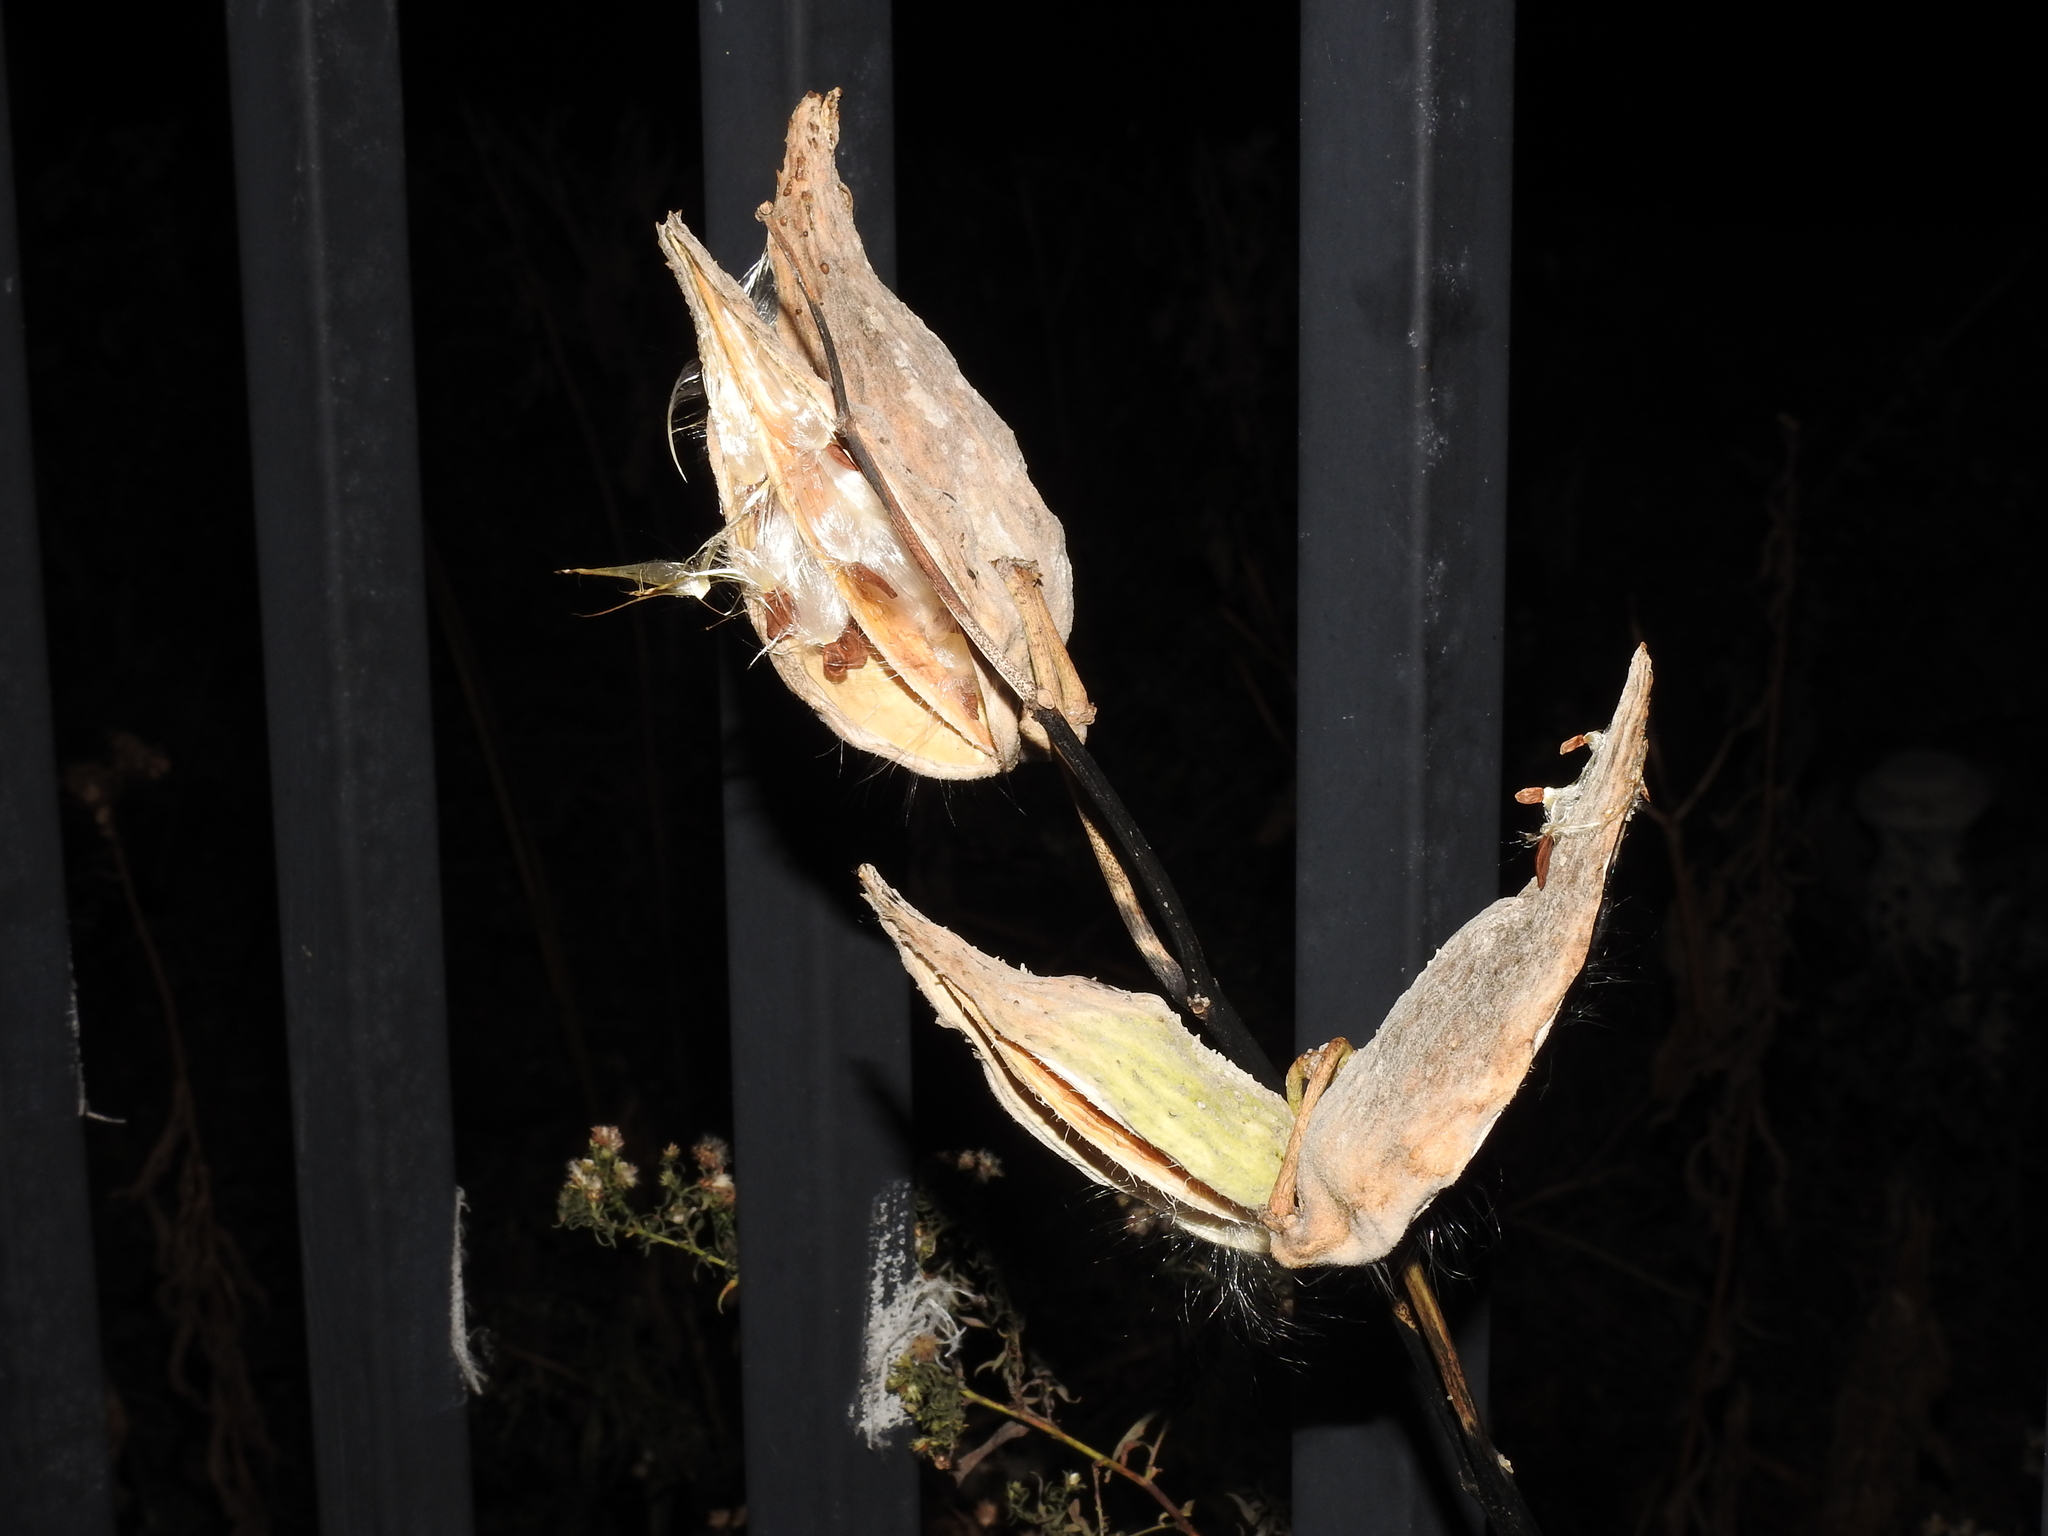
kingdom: Plantae
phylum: Tracheophyta
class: Magnoliopsida
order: Gentianales
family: Apocynaceae
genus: Asclepias
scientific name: Asclepias syriaca
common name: Common milkweed
